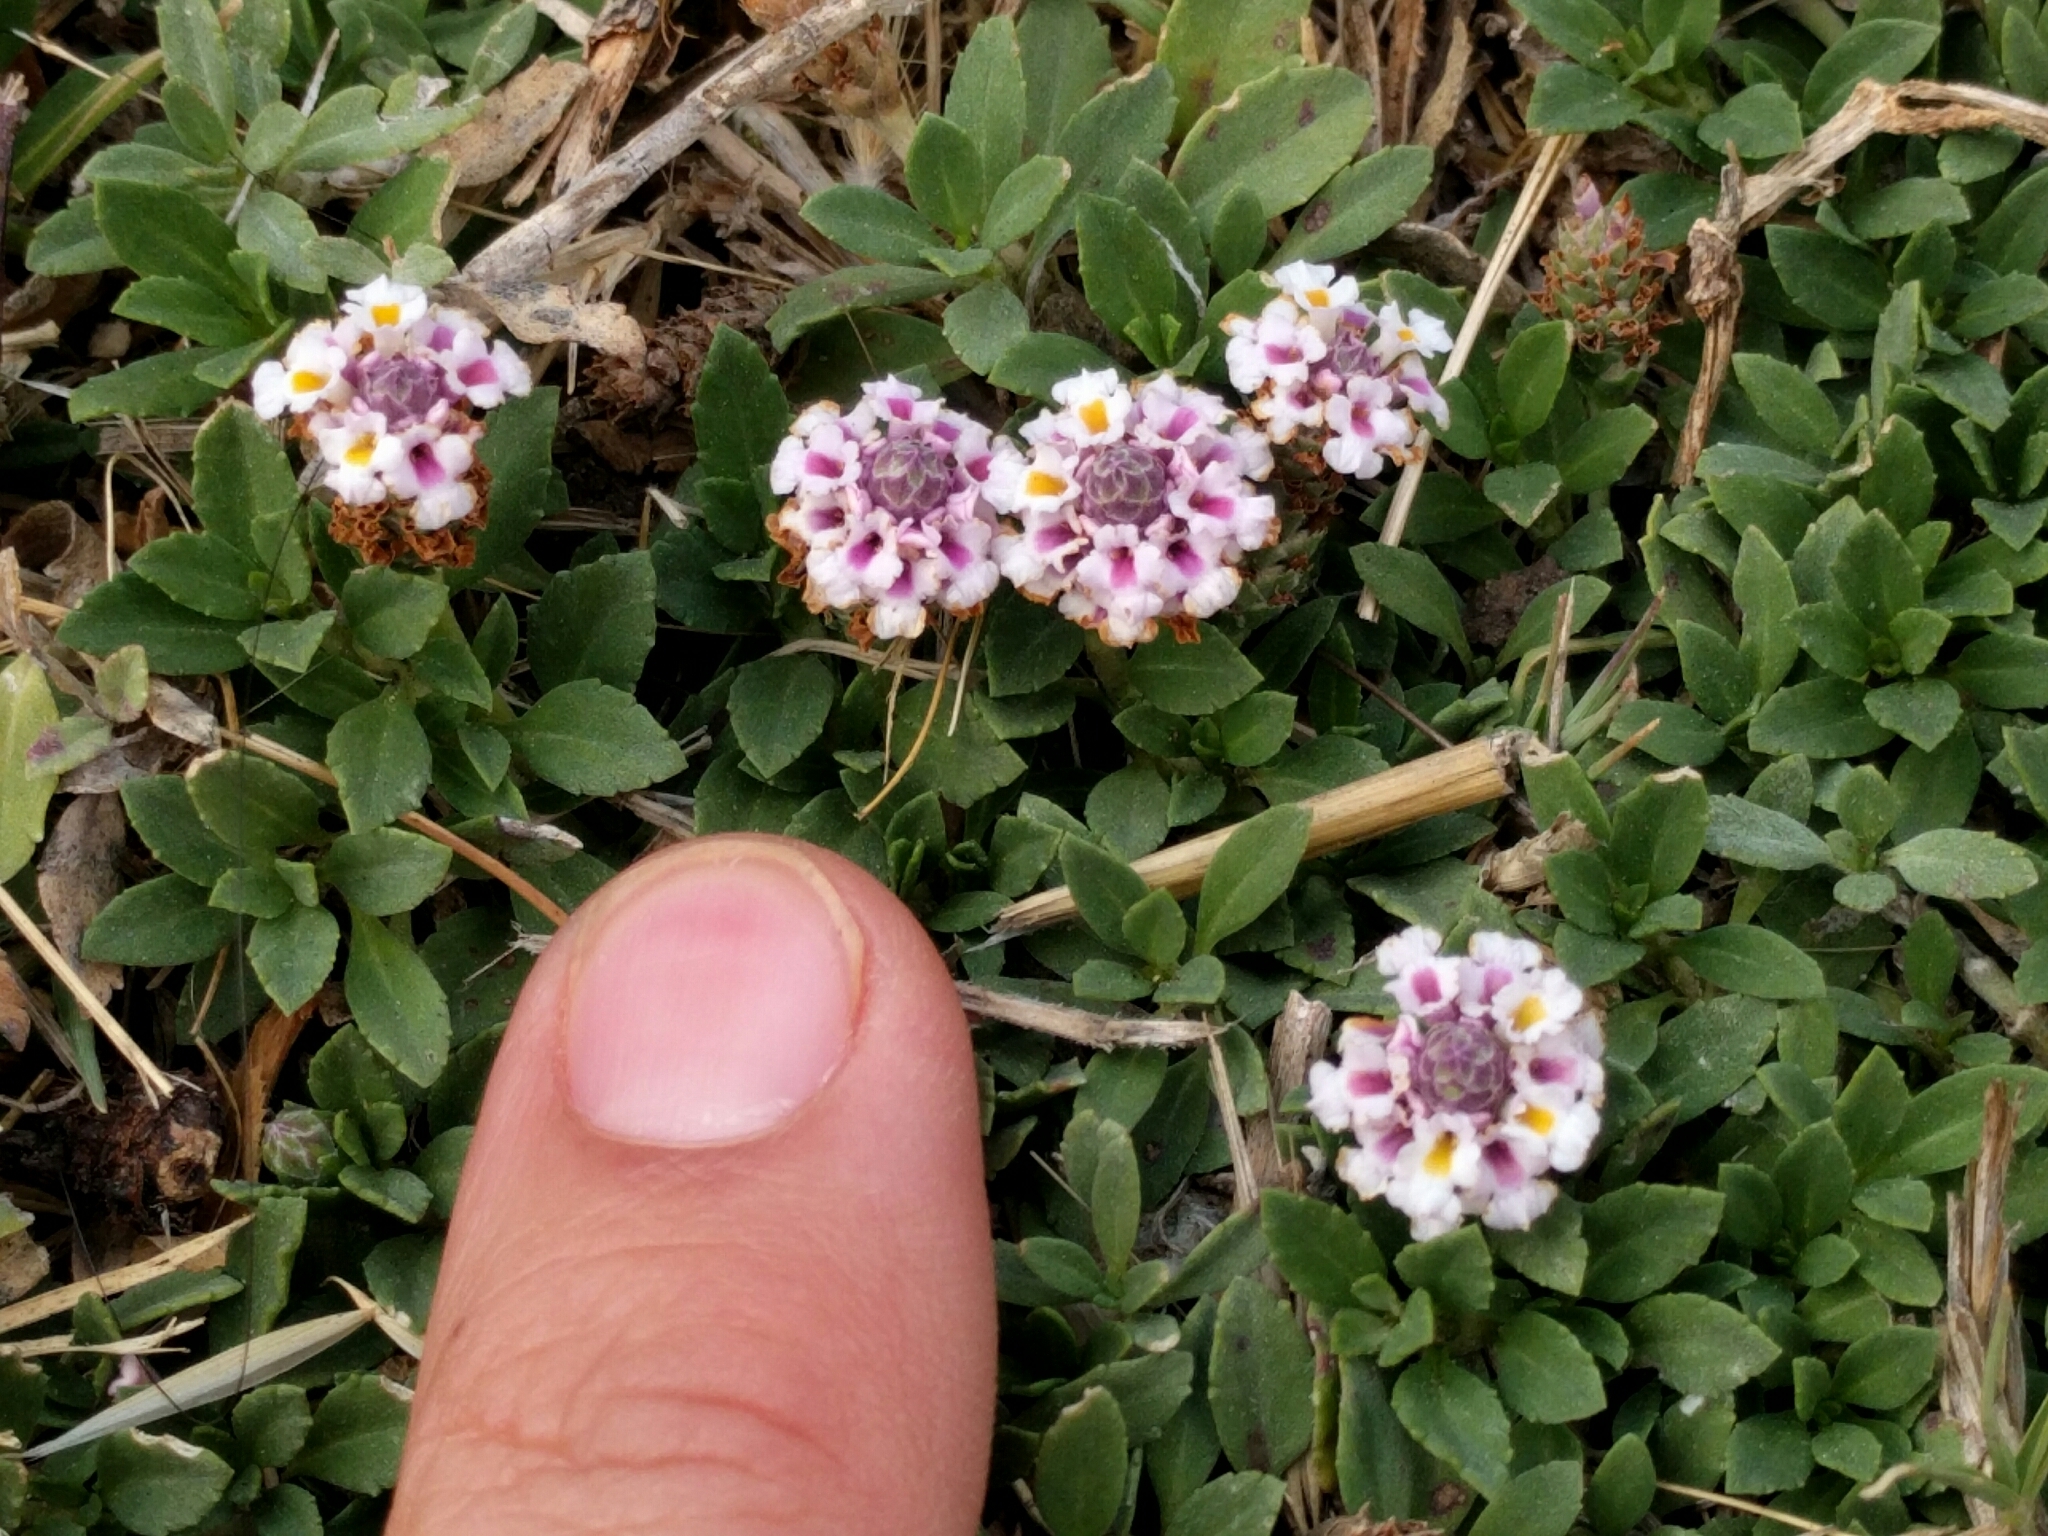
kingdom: Plantae
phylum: Tracheophyta
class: Magnoliopsida
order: Lamiales
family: Verbenaceae
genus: Phyla
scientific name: Phyla nodiflora
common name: Frogfruit
